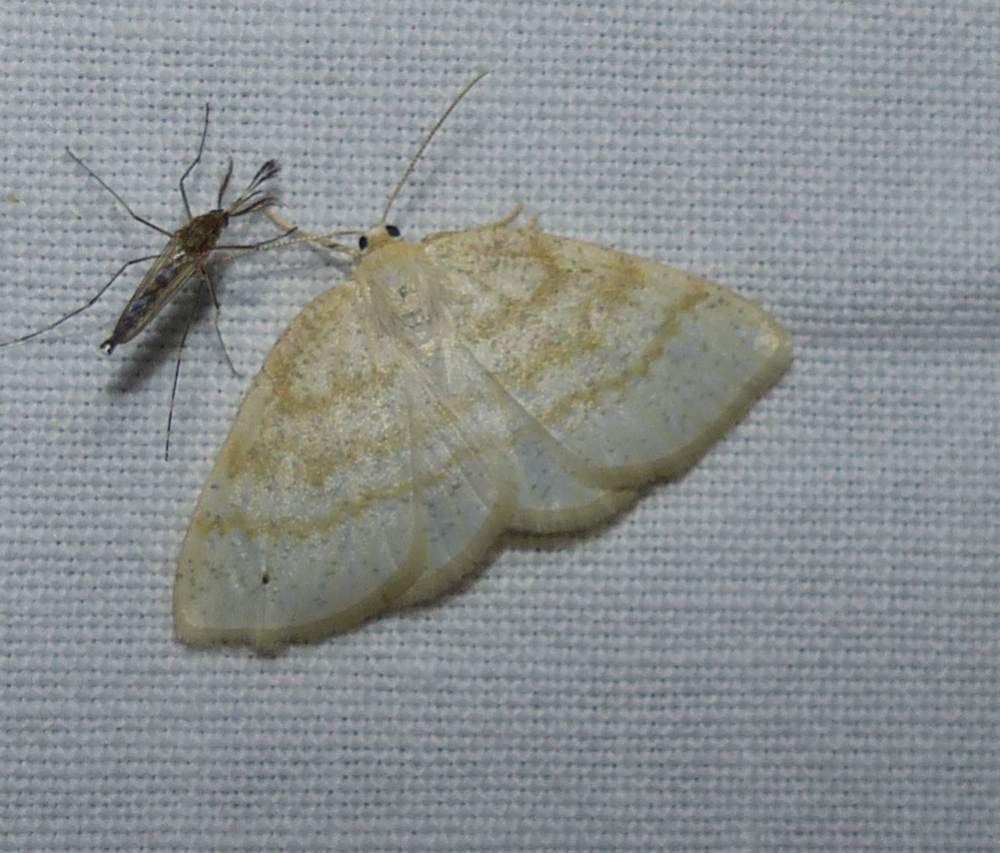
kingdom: Animalia
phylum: Arthropoda
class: Insecta
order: Lepidoptera
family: Geometridae
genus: Cabera
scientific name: Cabera erythemaria
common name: Yellow-dusted cream moth
